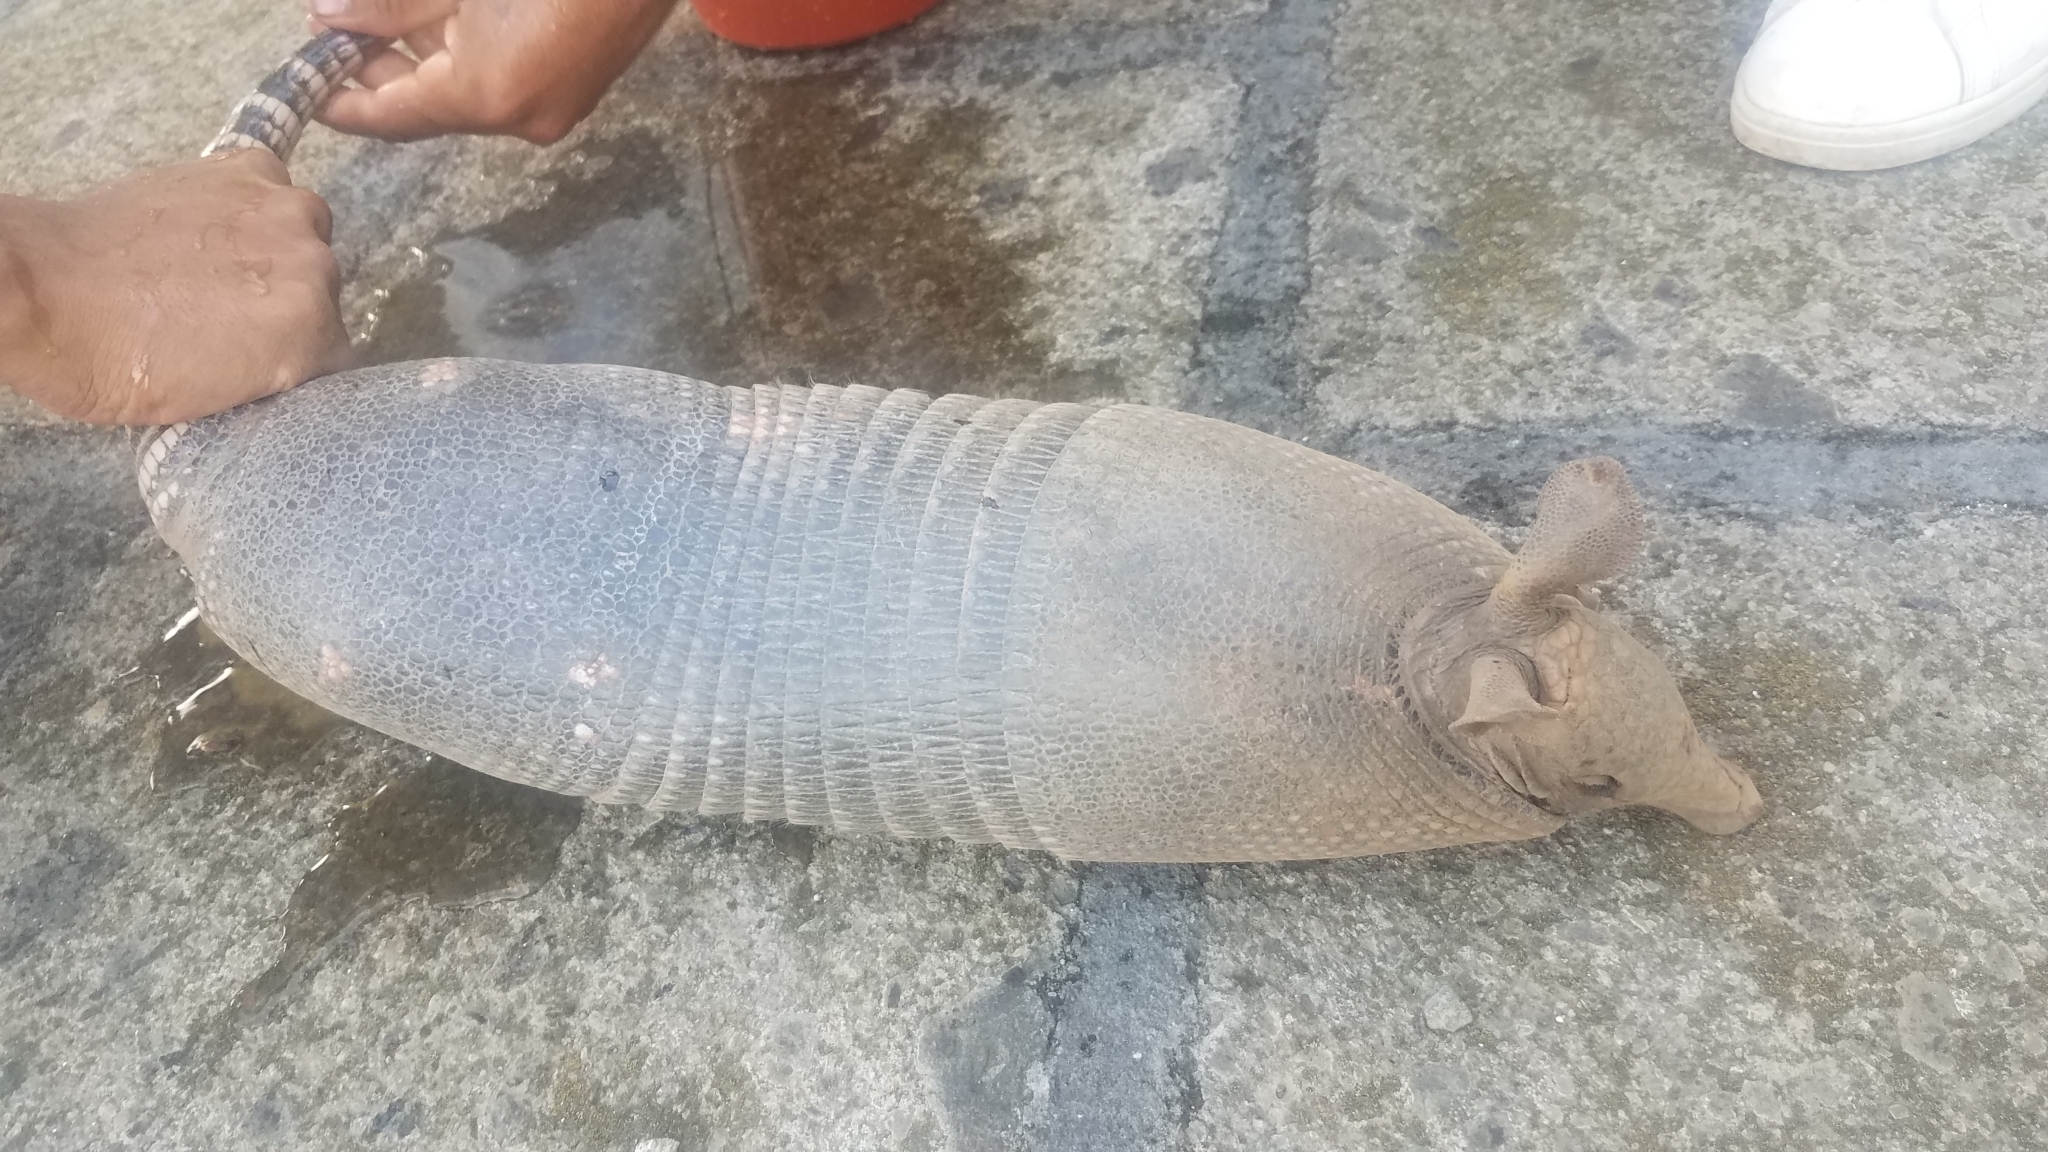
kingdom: Animalia
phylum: Chordata
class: Mammalia
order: Cingulata
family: Dasypodidae
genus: Dasypus
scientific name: Dasypus novemcinctus
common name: Nine-banded armadillo
